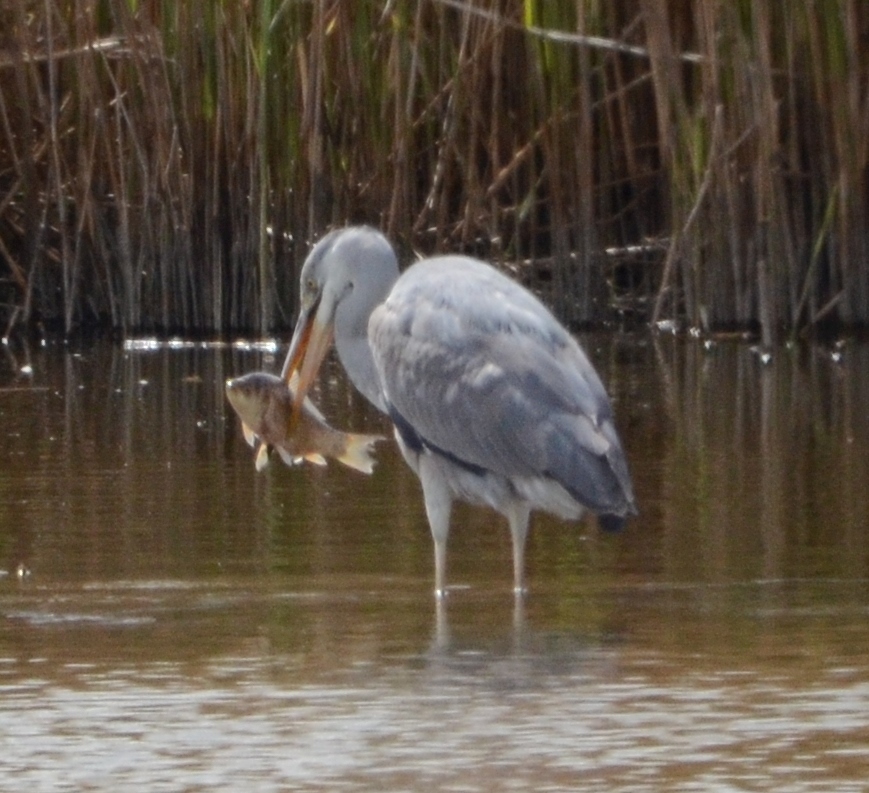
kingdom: Animalia
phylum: Chordata
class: Aves
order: Pelecaniformes
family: Ardeidae
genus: Ardea
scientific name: Ardea cinerea
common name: Grey heron
